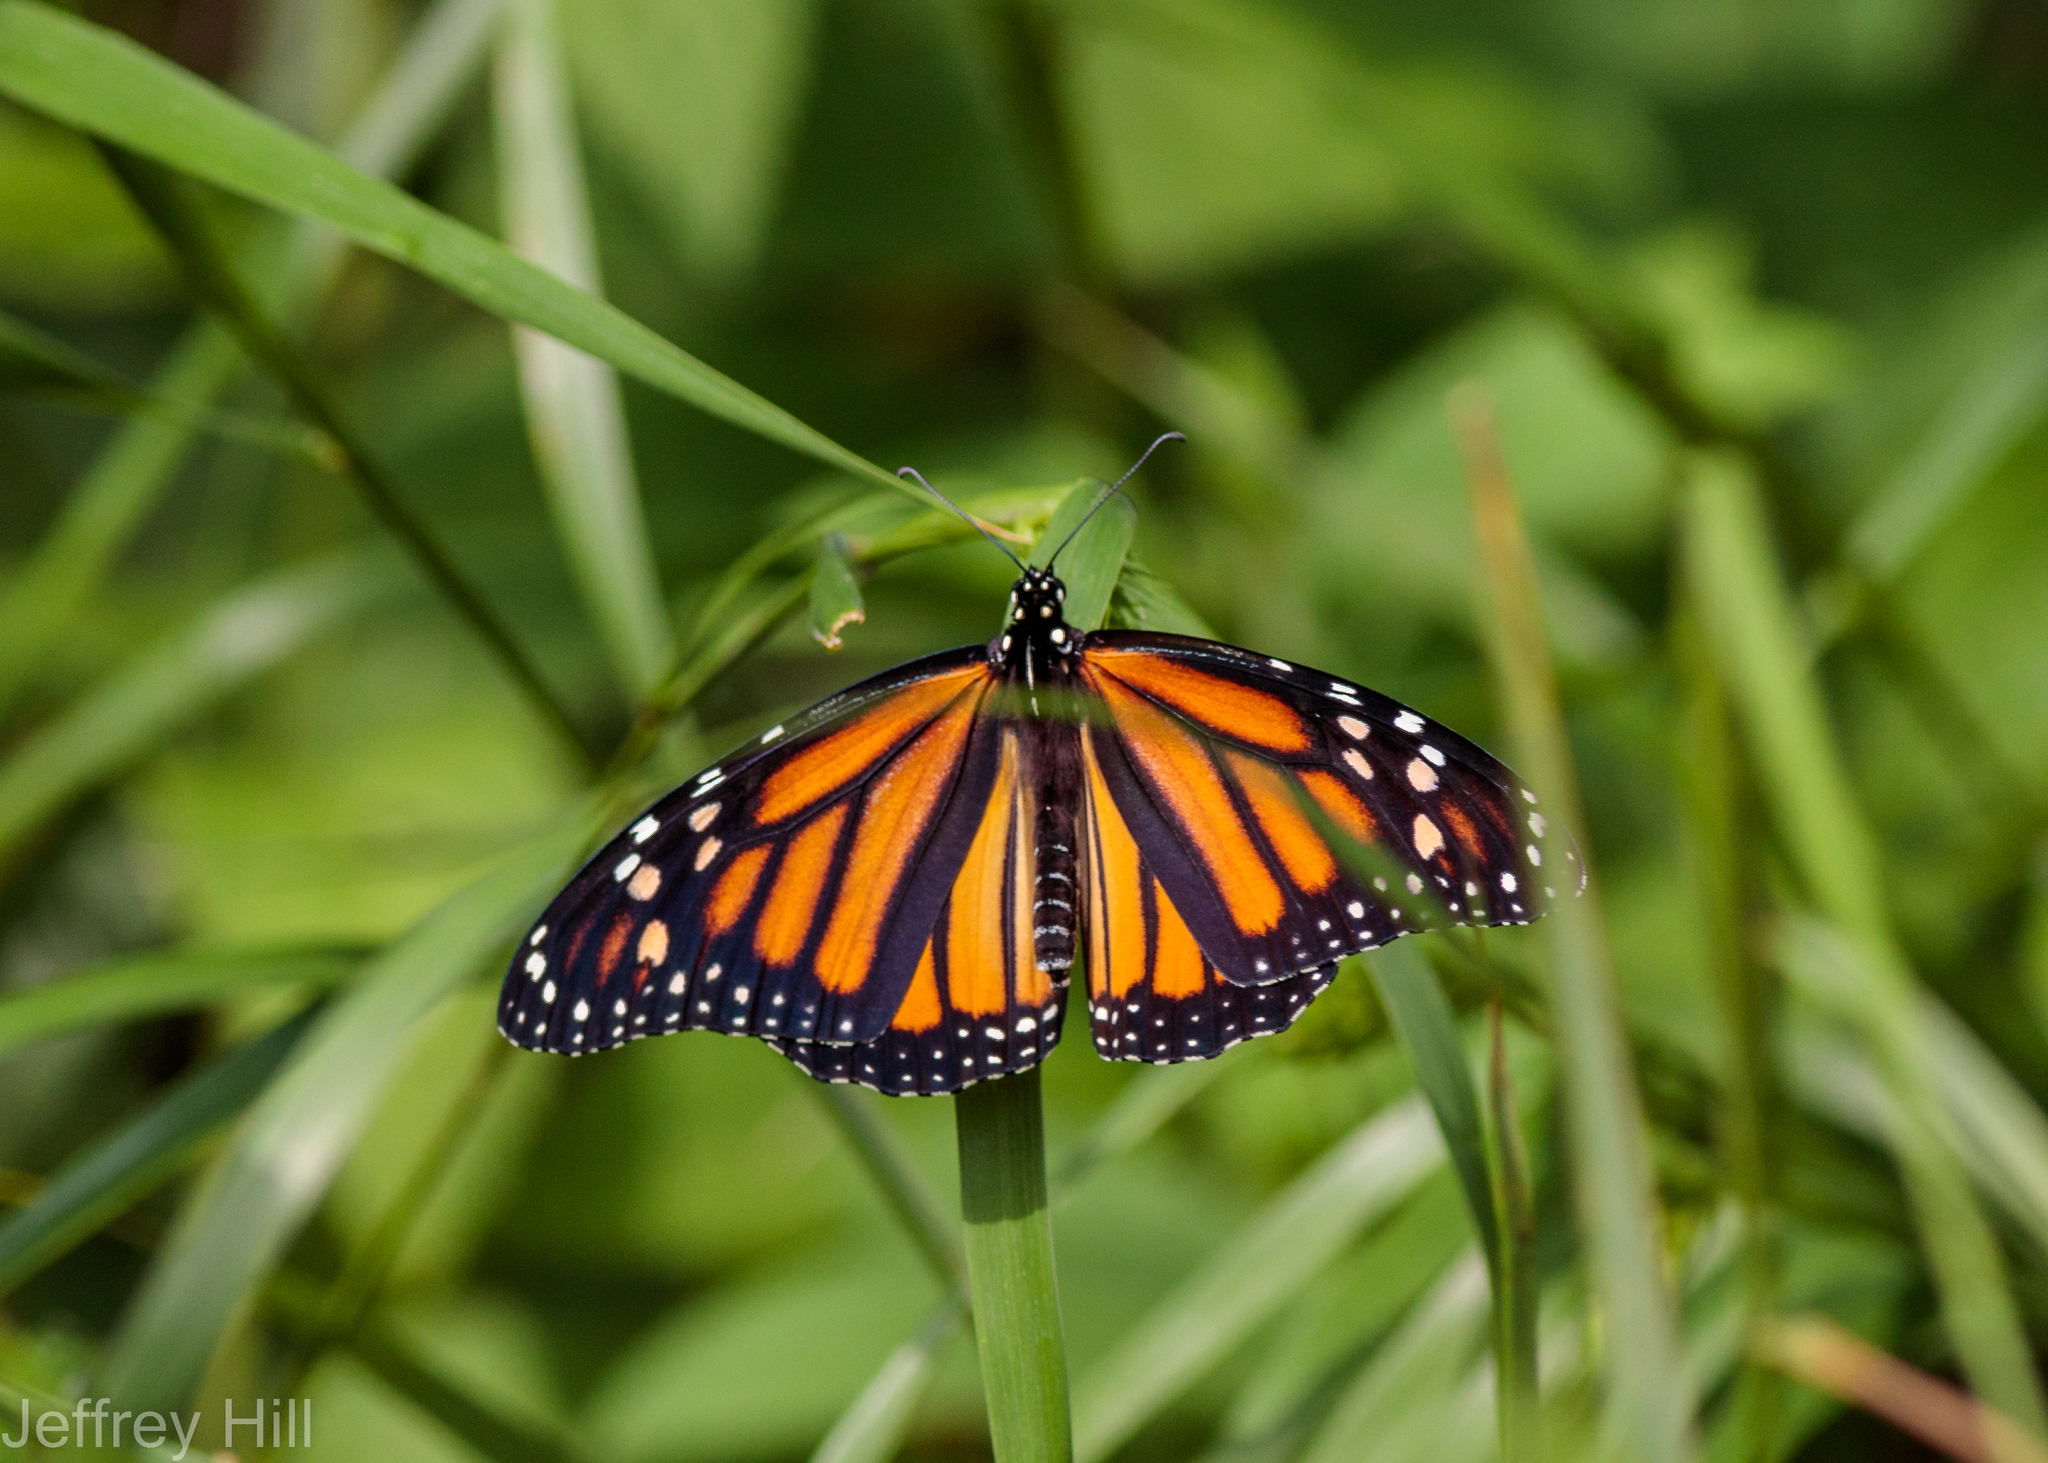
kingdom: Animalia
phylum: Arthropoda
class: Insecta
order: Lepidoptera
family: Nymphalidae
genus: Danaus
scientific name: Danaus plexippus
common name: Monarch
